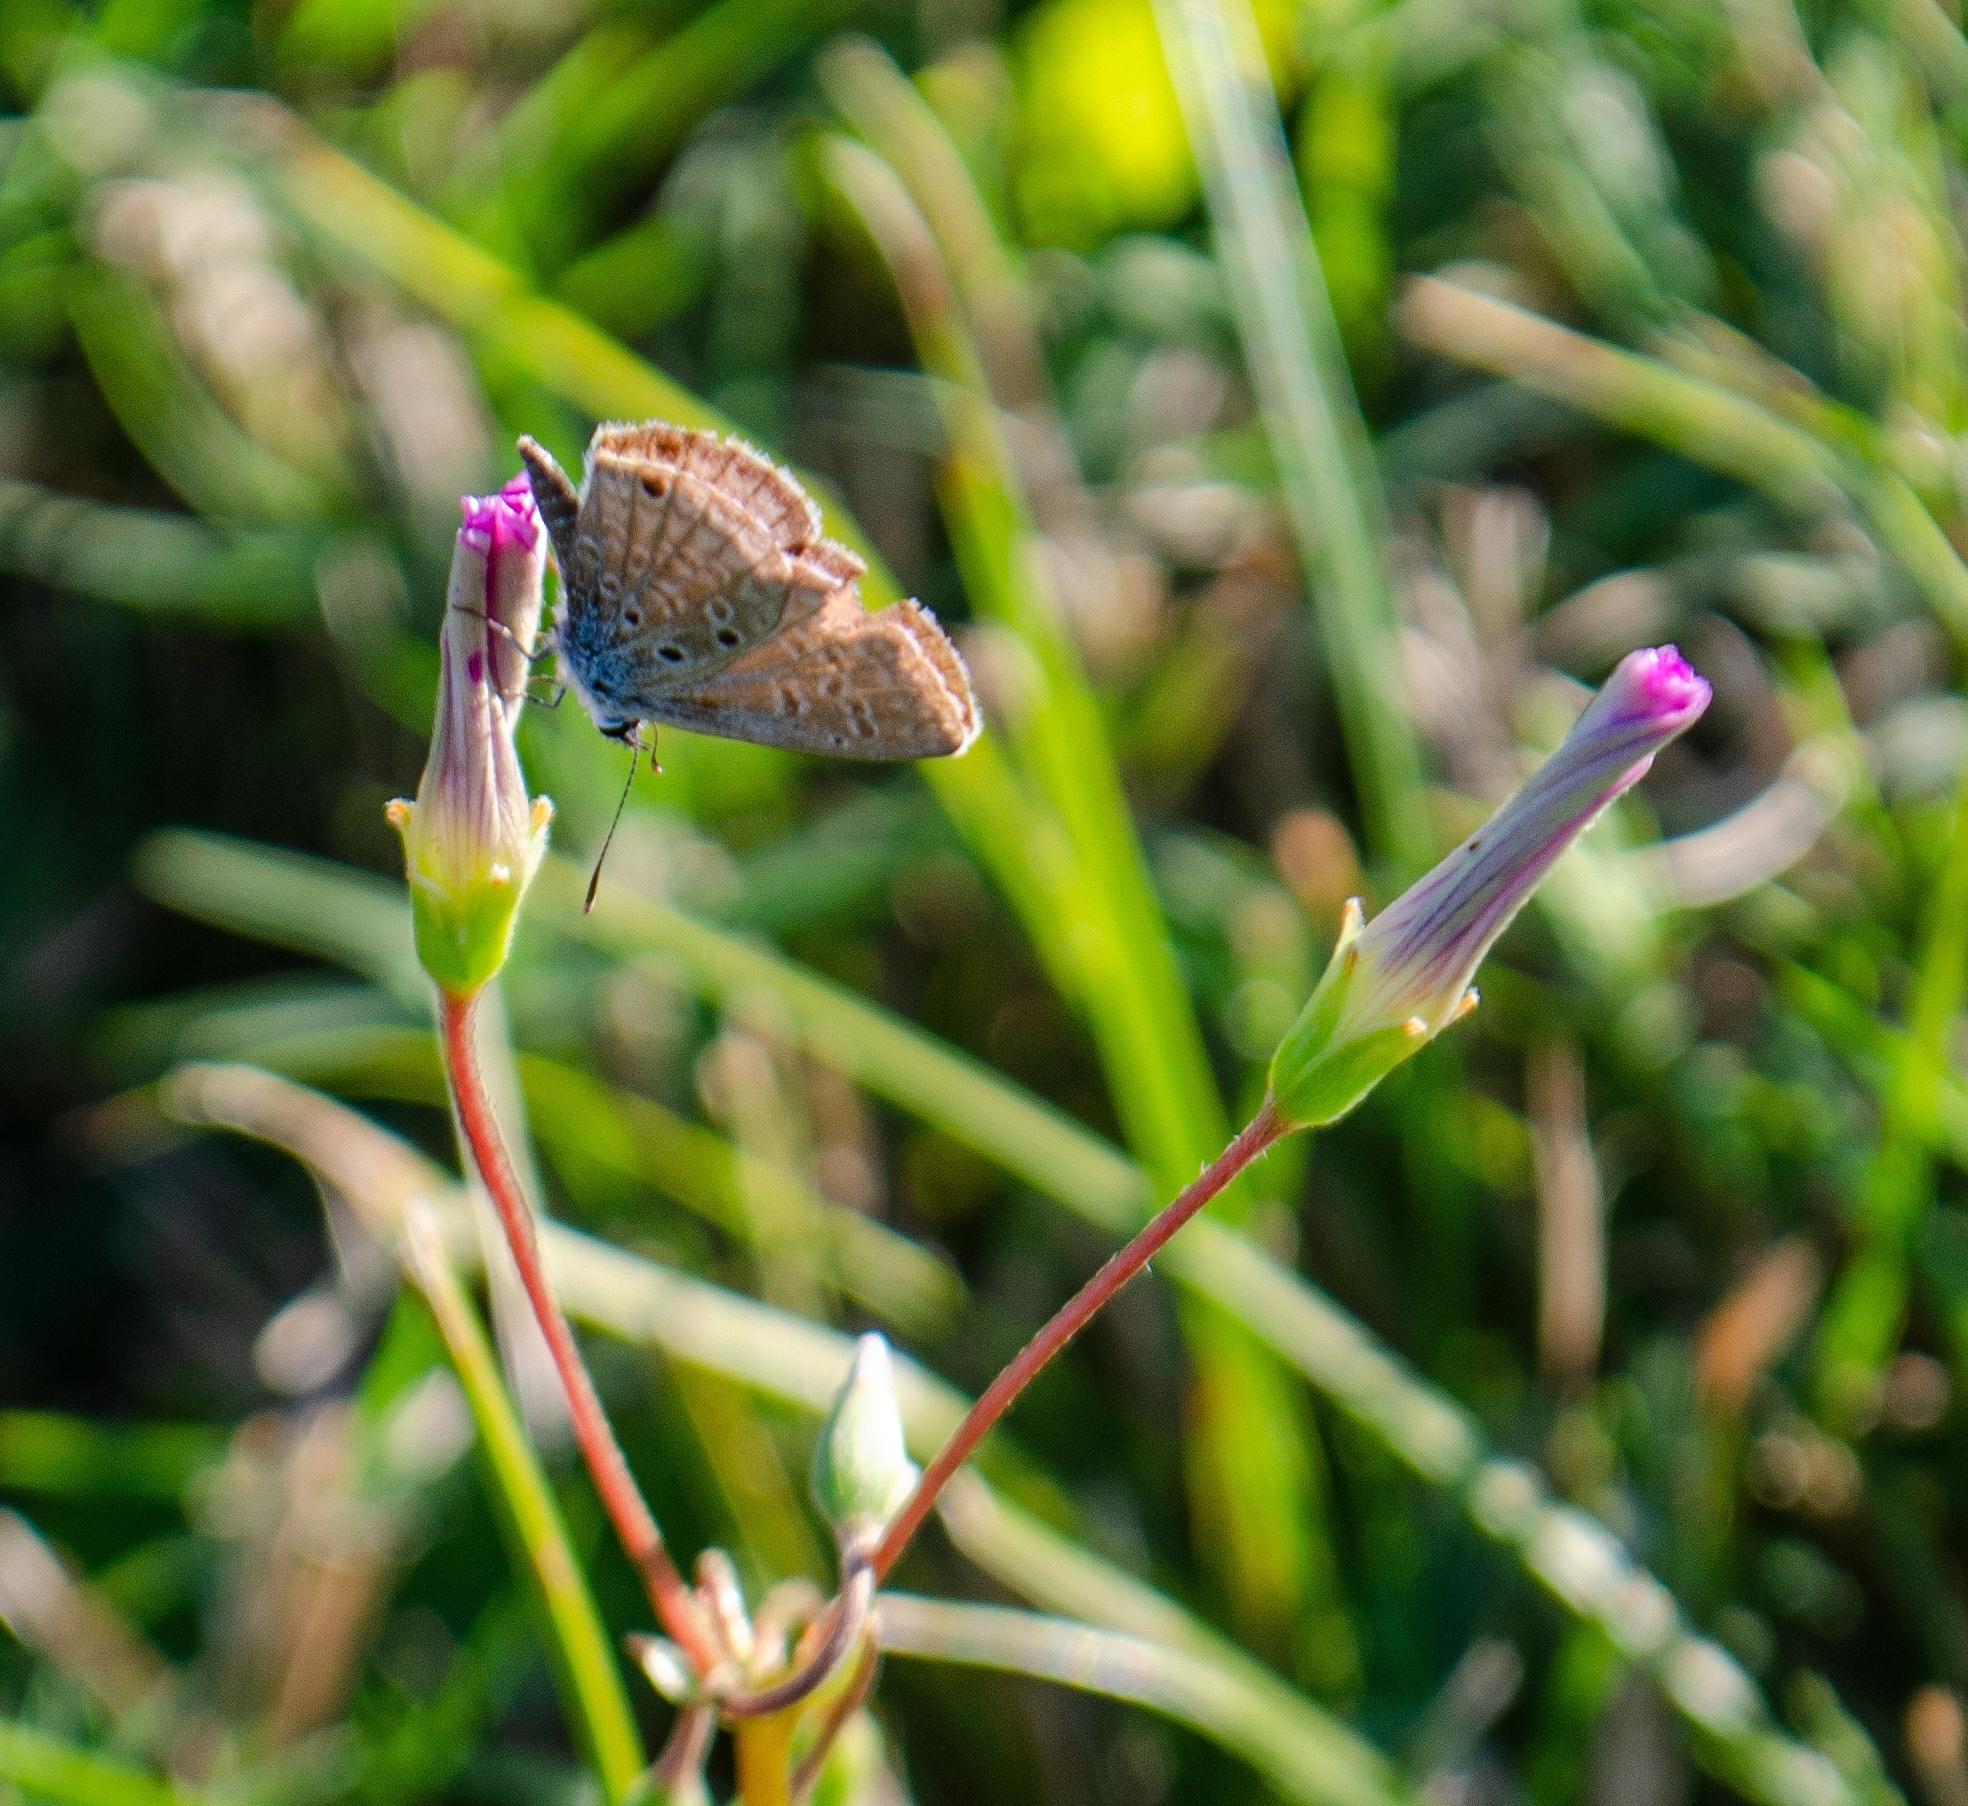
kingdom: Animalia
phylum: Arthropoda
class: Insecta
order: Lepidoptera
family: Lycaenidae
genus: Hemiargus
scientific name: Hemiargus hanno
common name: Common blue
